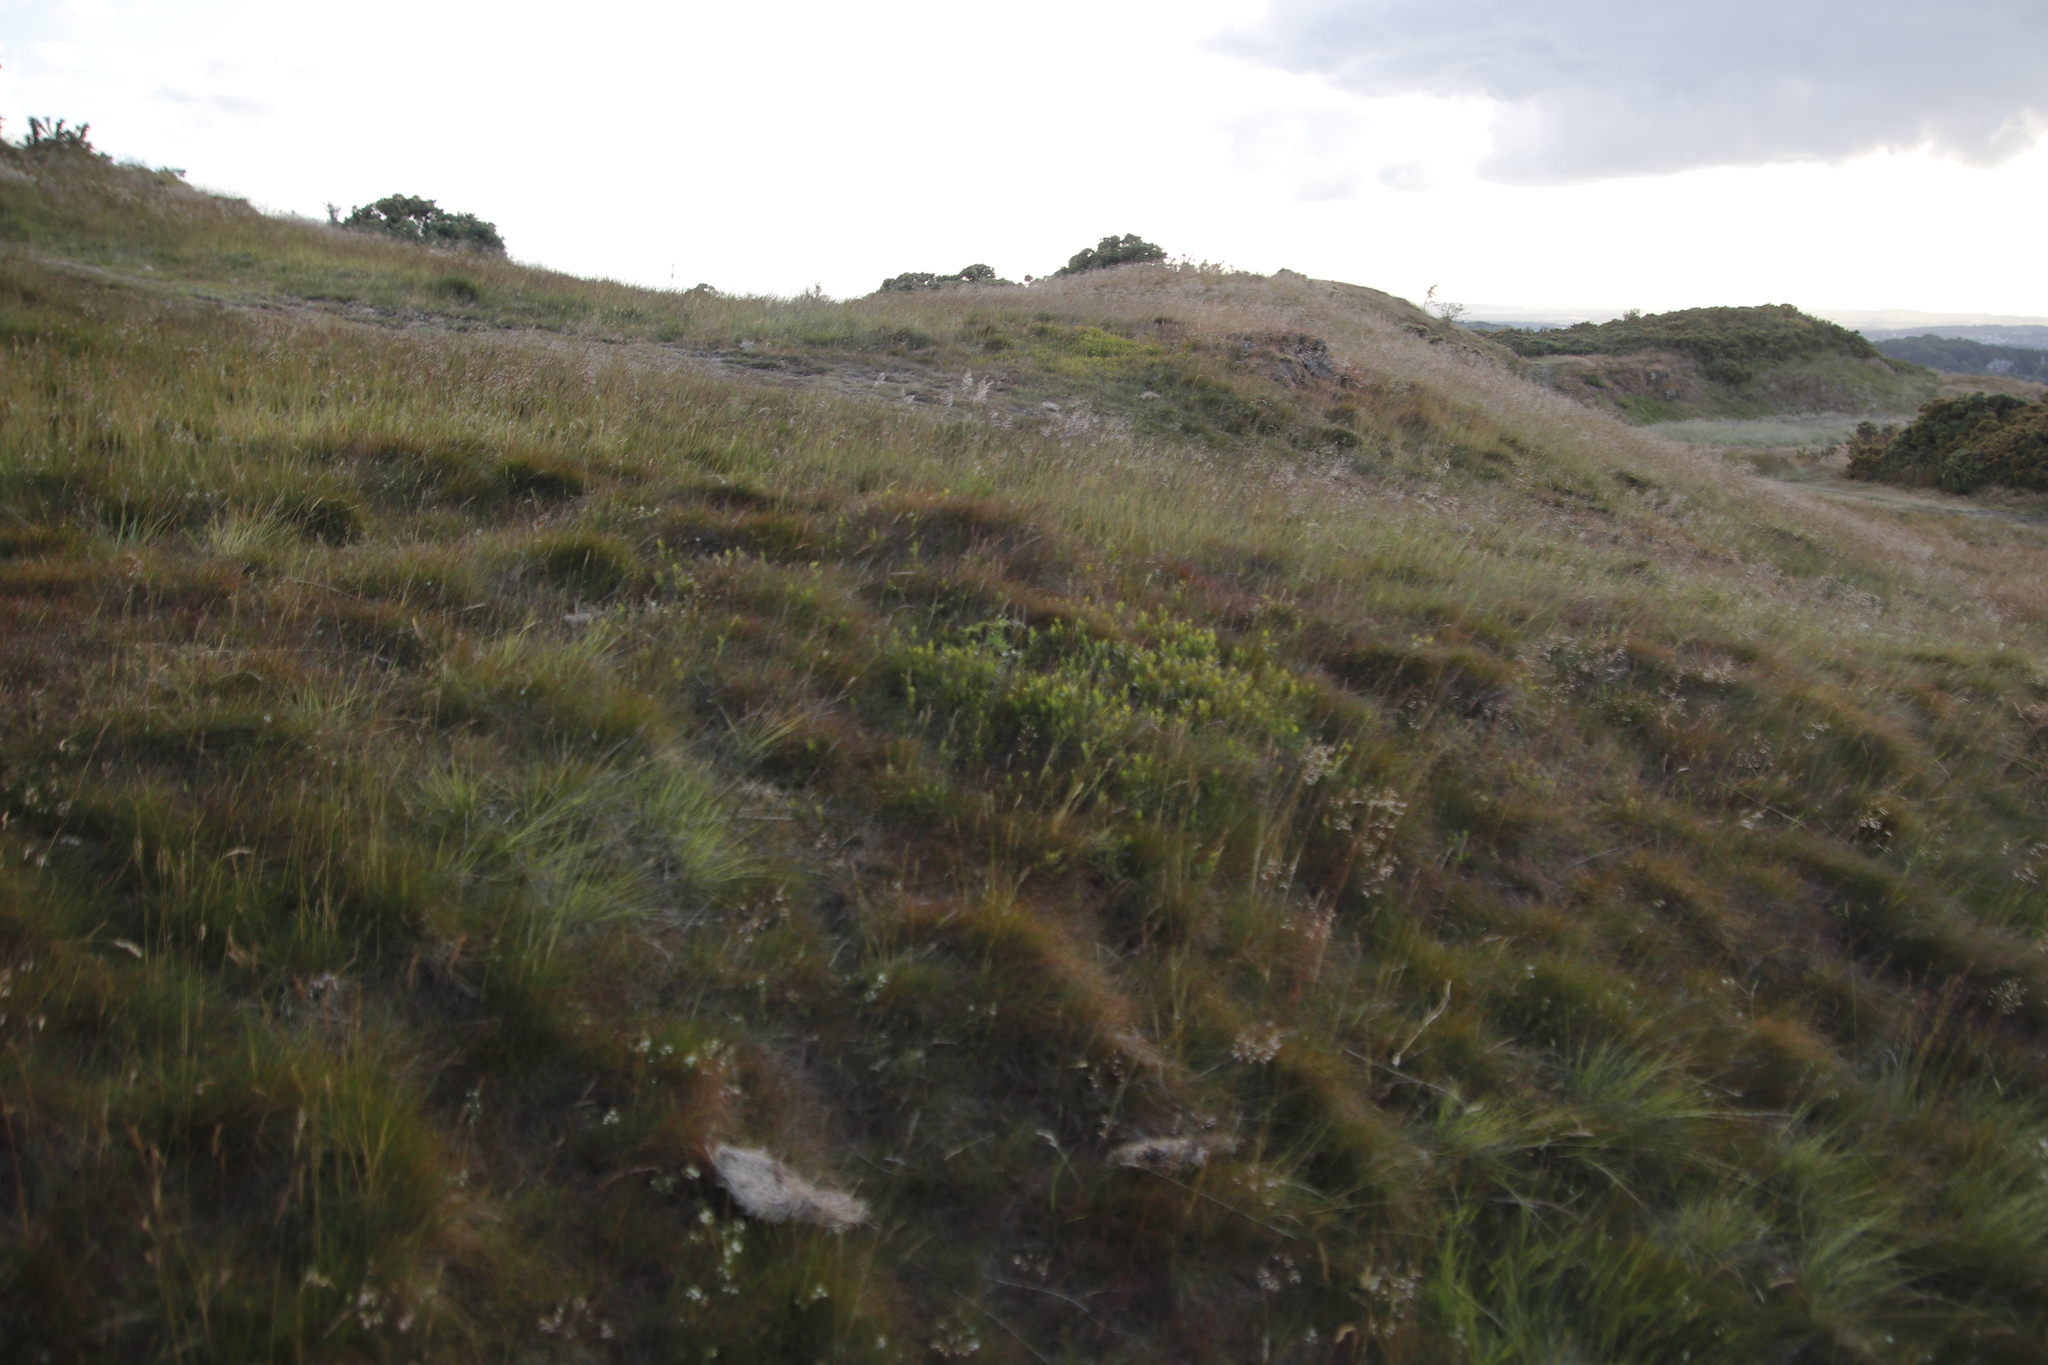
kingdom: Plantae
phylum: Tracheophyta
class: Magnoliopsida
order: Ericales
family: Ericaceae
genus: Vaccinium
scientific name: Vaccinium myrtillus
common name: Bilberry
